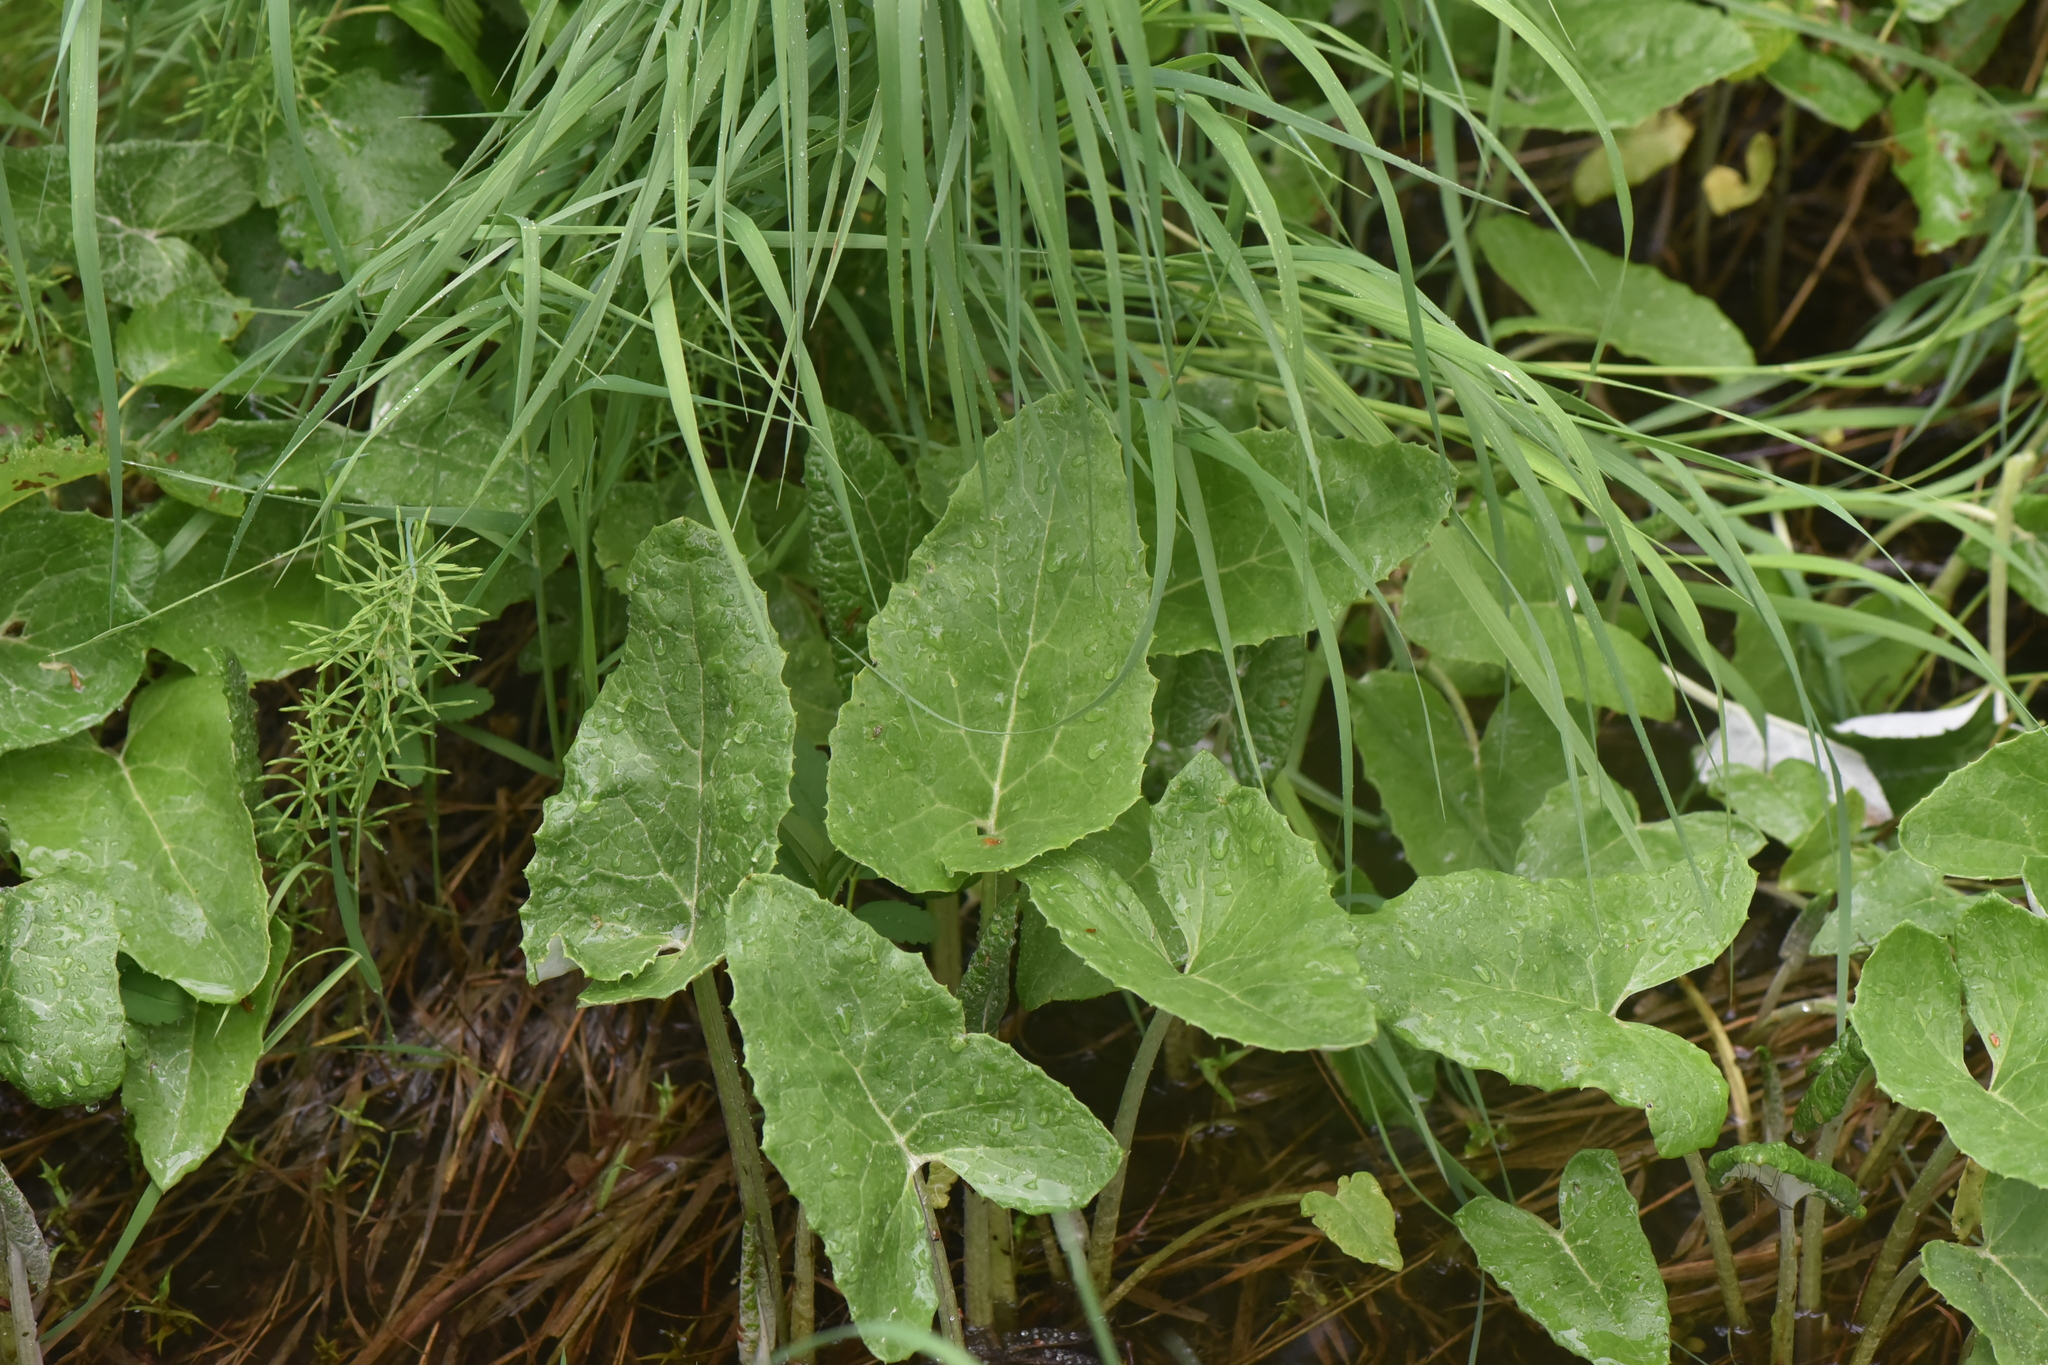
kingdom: Plantae
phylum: Tracheophyta
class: Magnoliopsida
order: Asterales
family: Asteraceae
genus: Petasites
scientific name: Petasites frigidus
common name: Arctic butterbur
